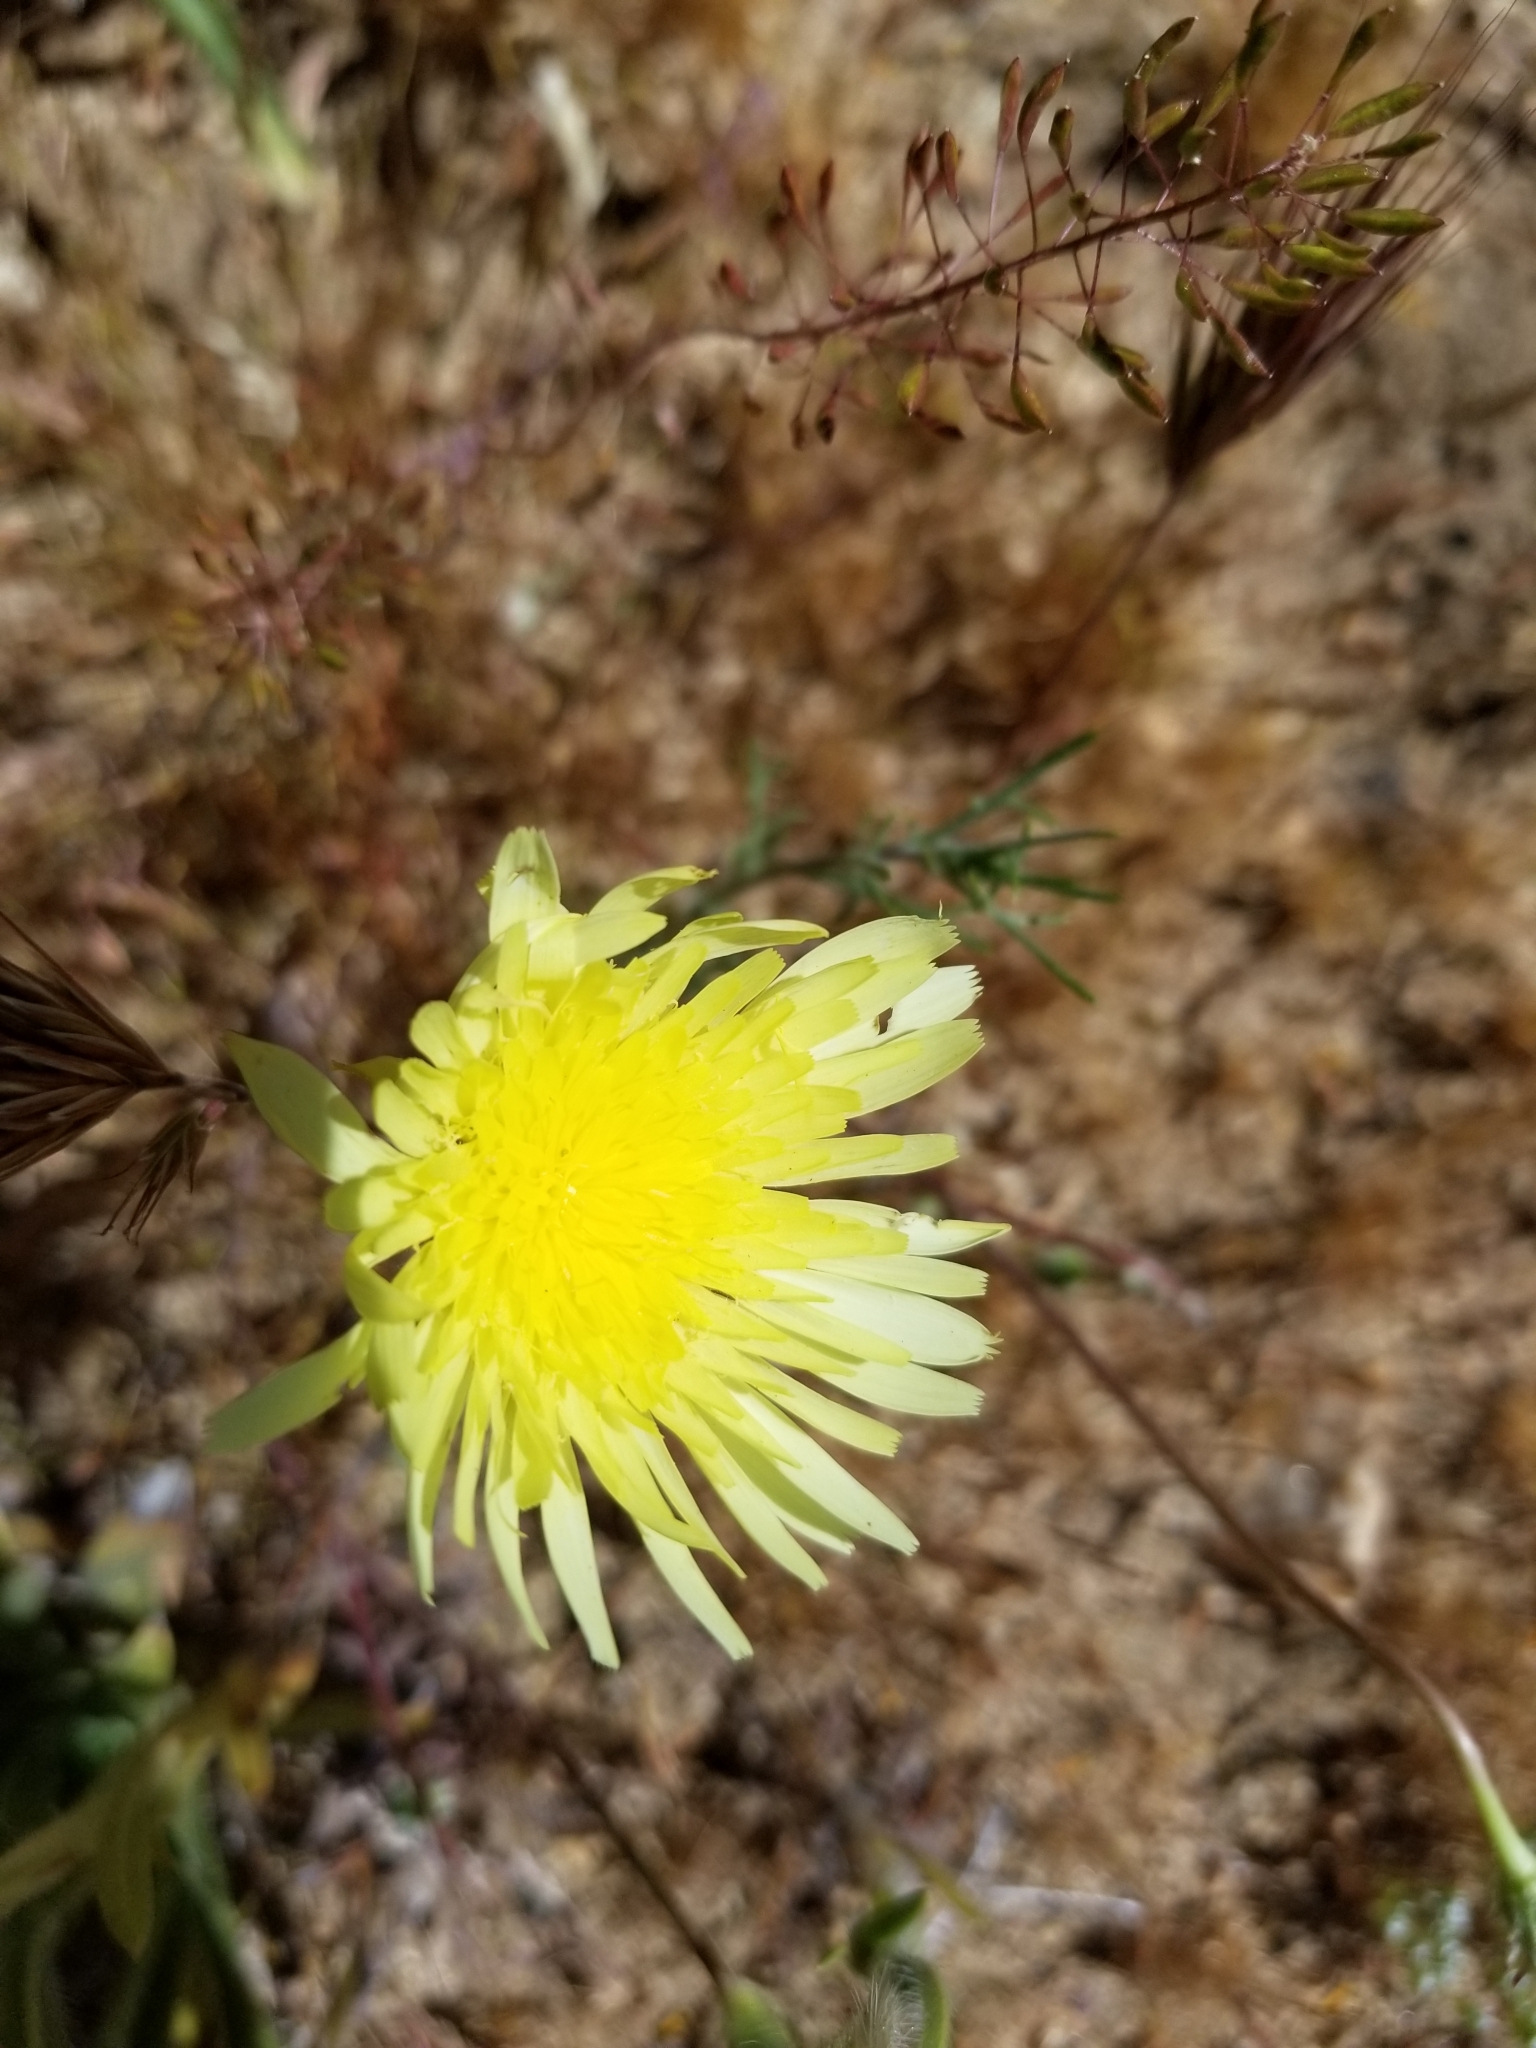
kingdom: Plantae
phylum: Tracheophyta
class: Magnoliopsida
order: Asterales
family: Asteraceae
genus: Malacothrix
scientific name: Malacothrix glabrata
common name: Smooth desert-dandelion
